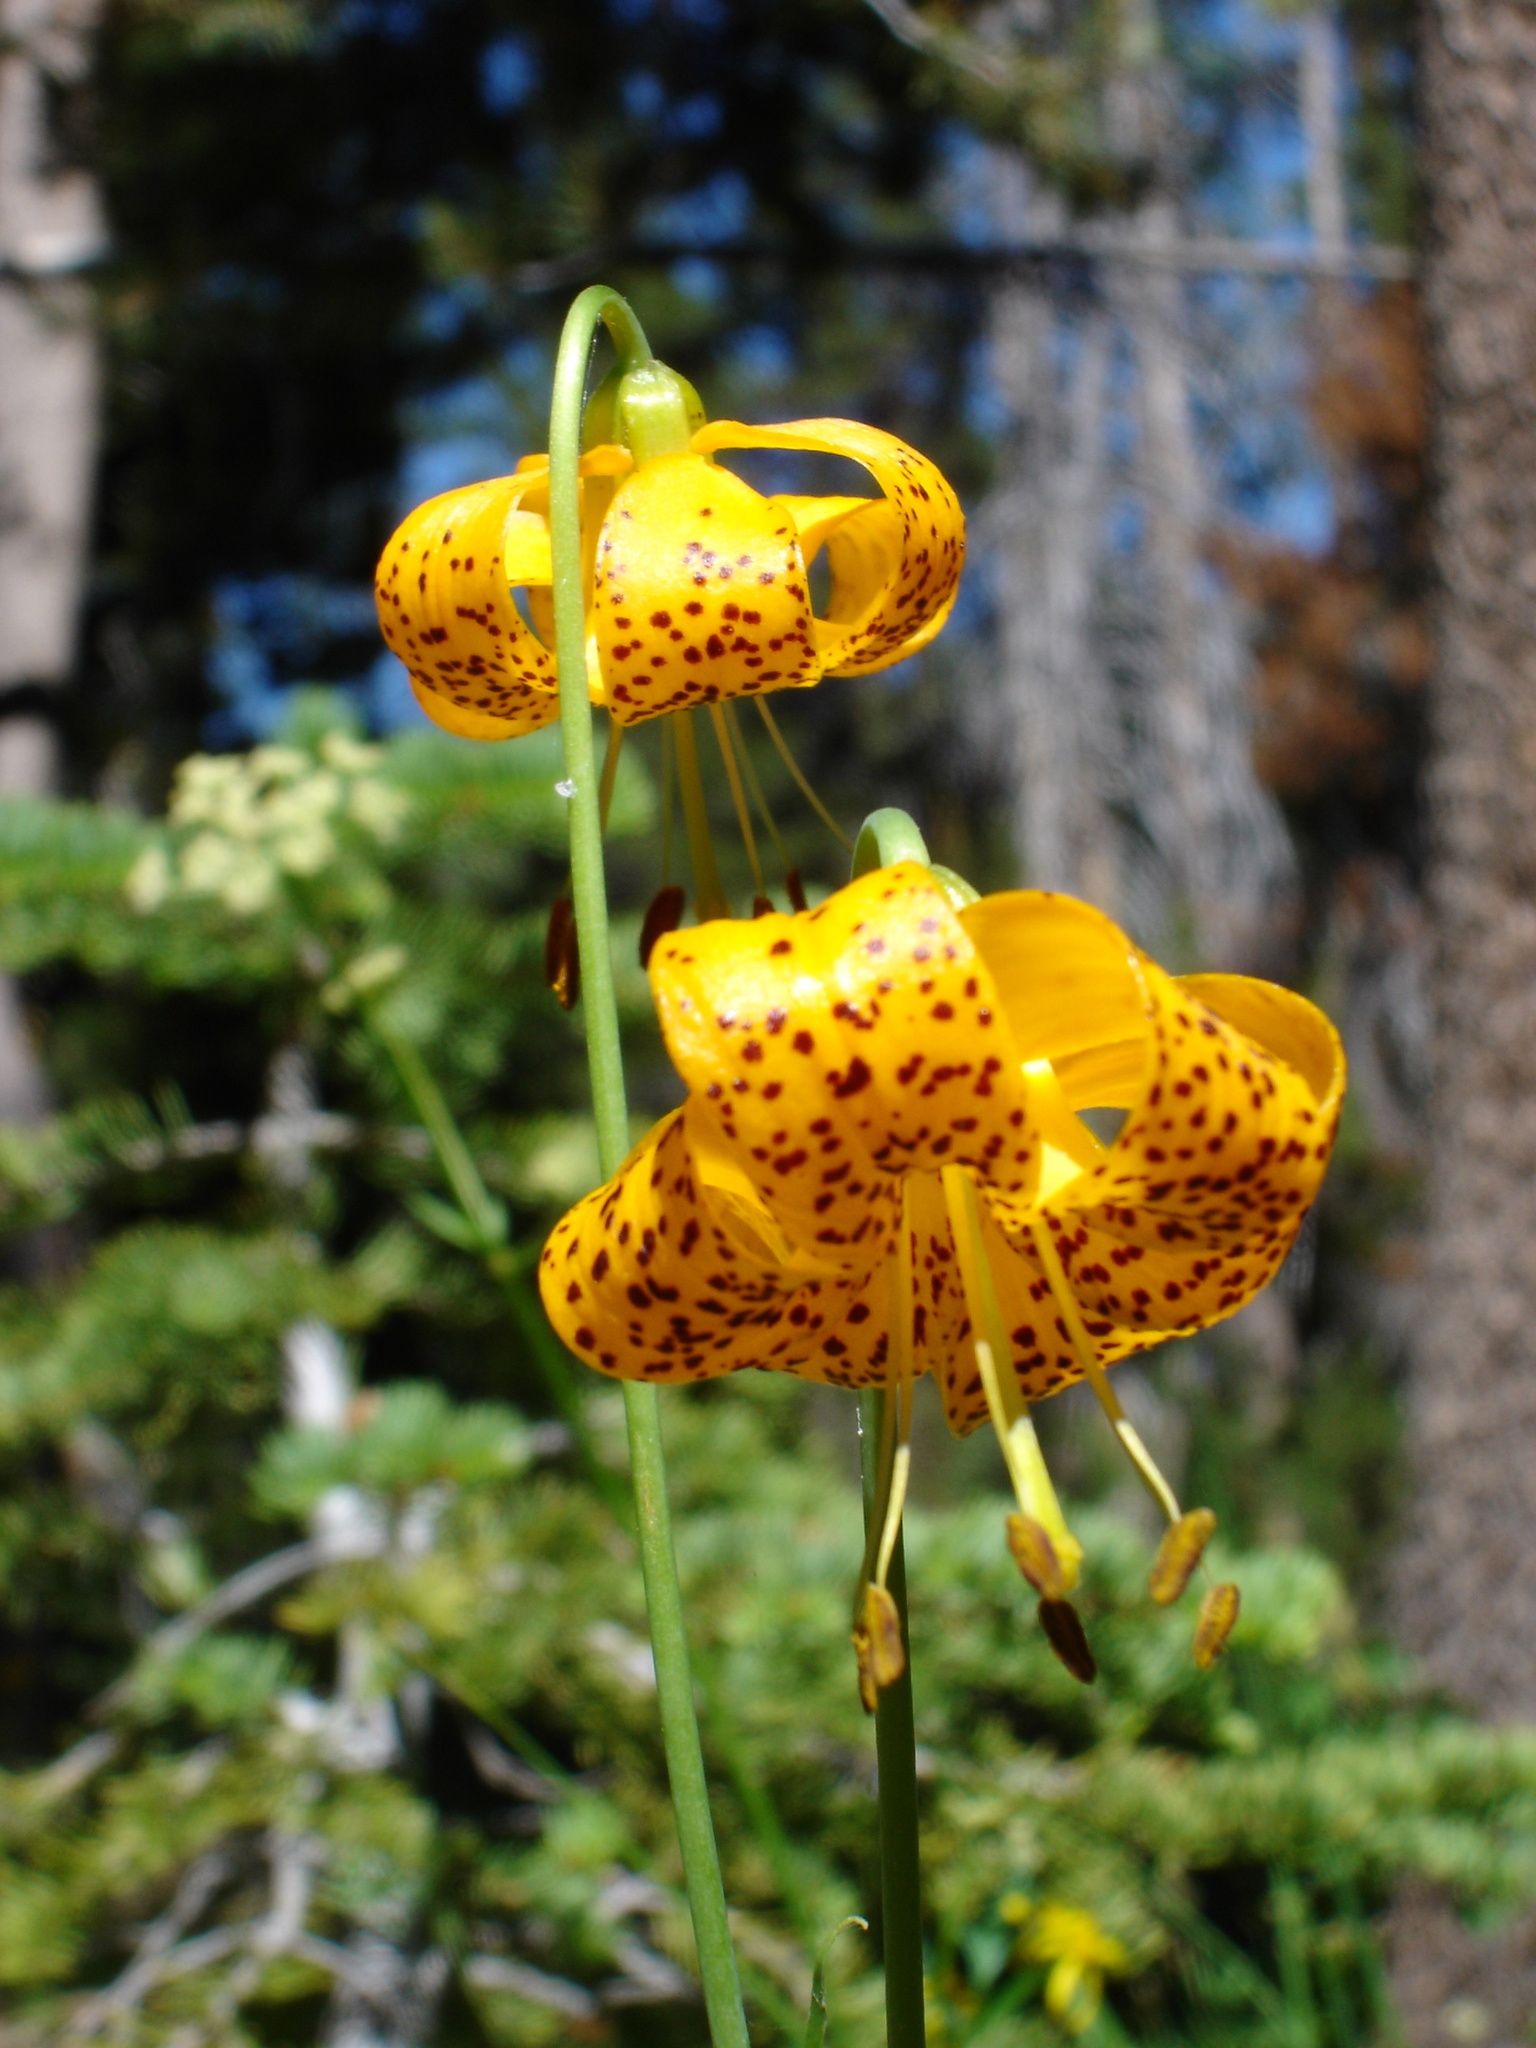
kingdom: Plantae
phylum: Tracheophyta
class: Liliopsida
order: Liliales
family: Liliaceae
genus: Lilium
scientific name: Lilium kelleyanum
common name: Kelley's lily
